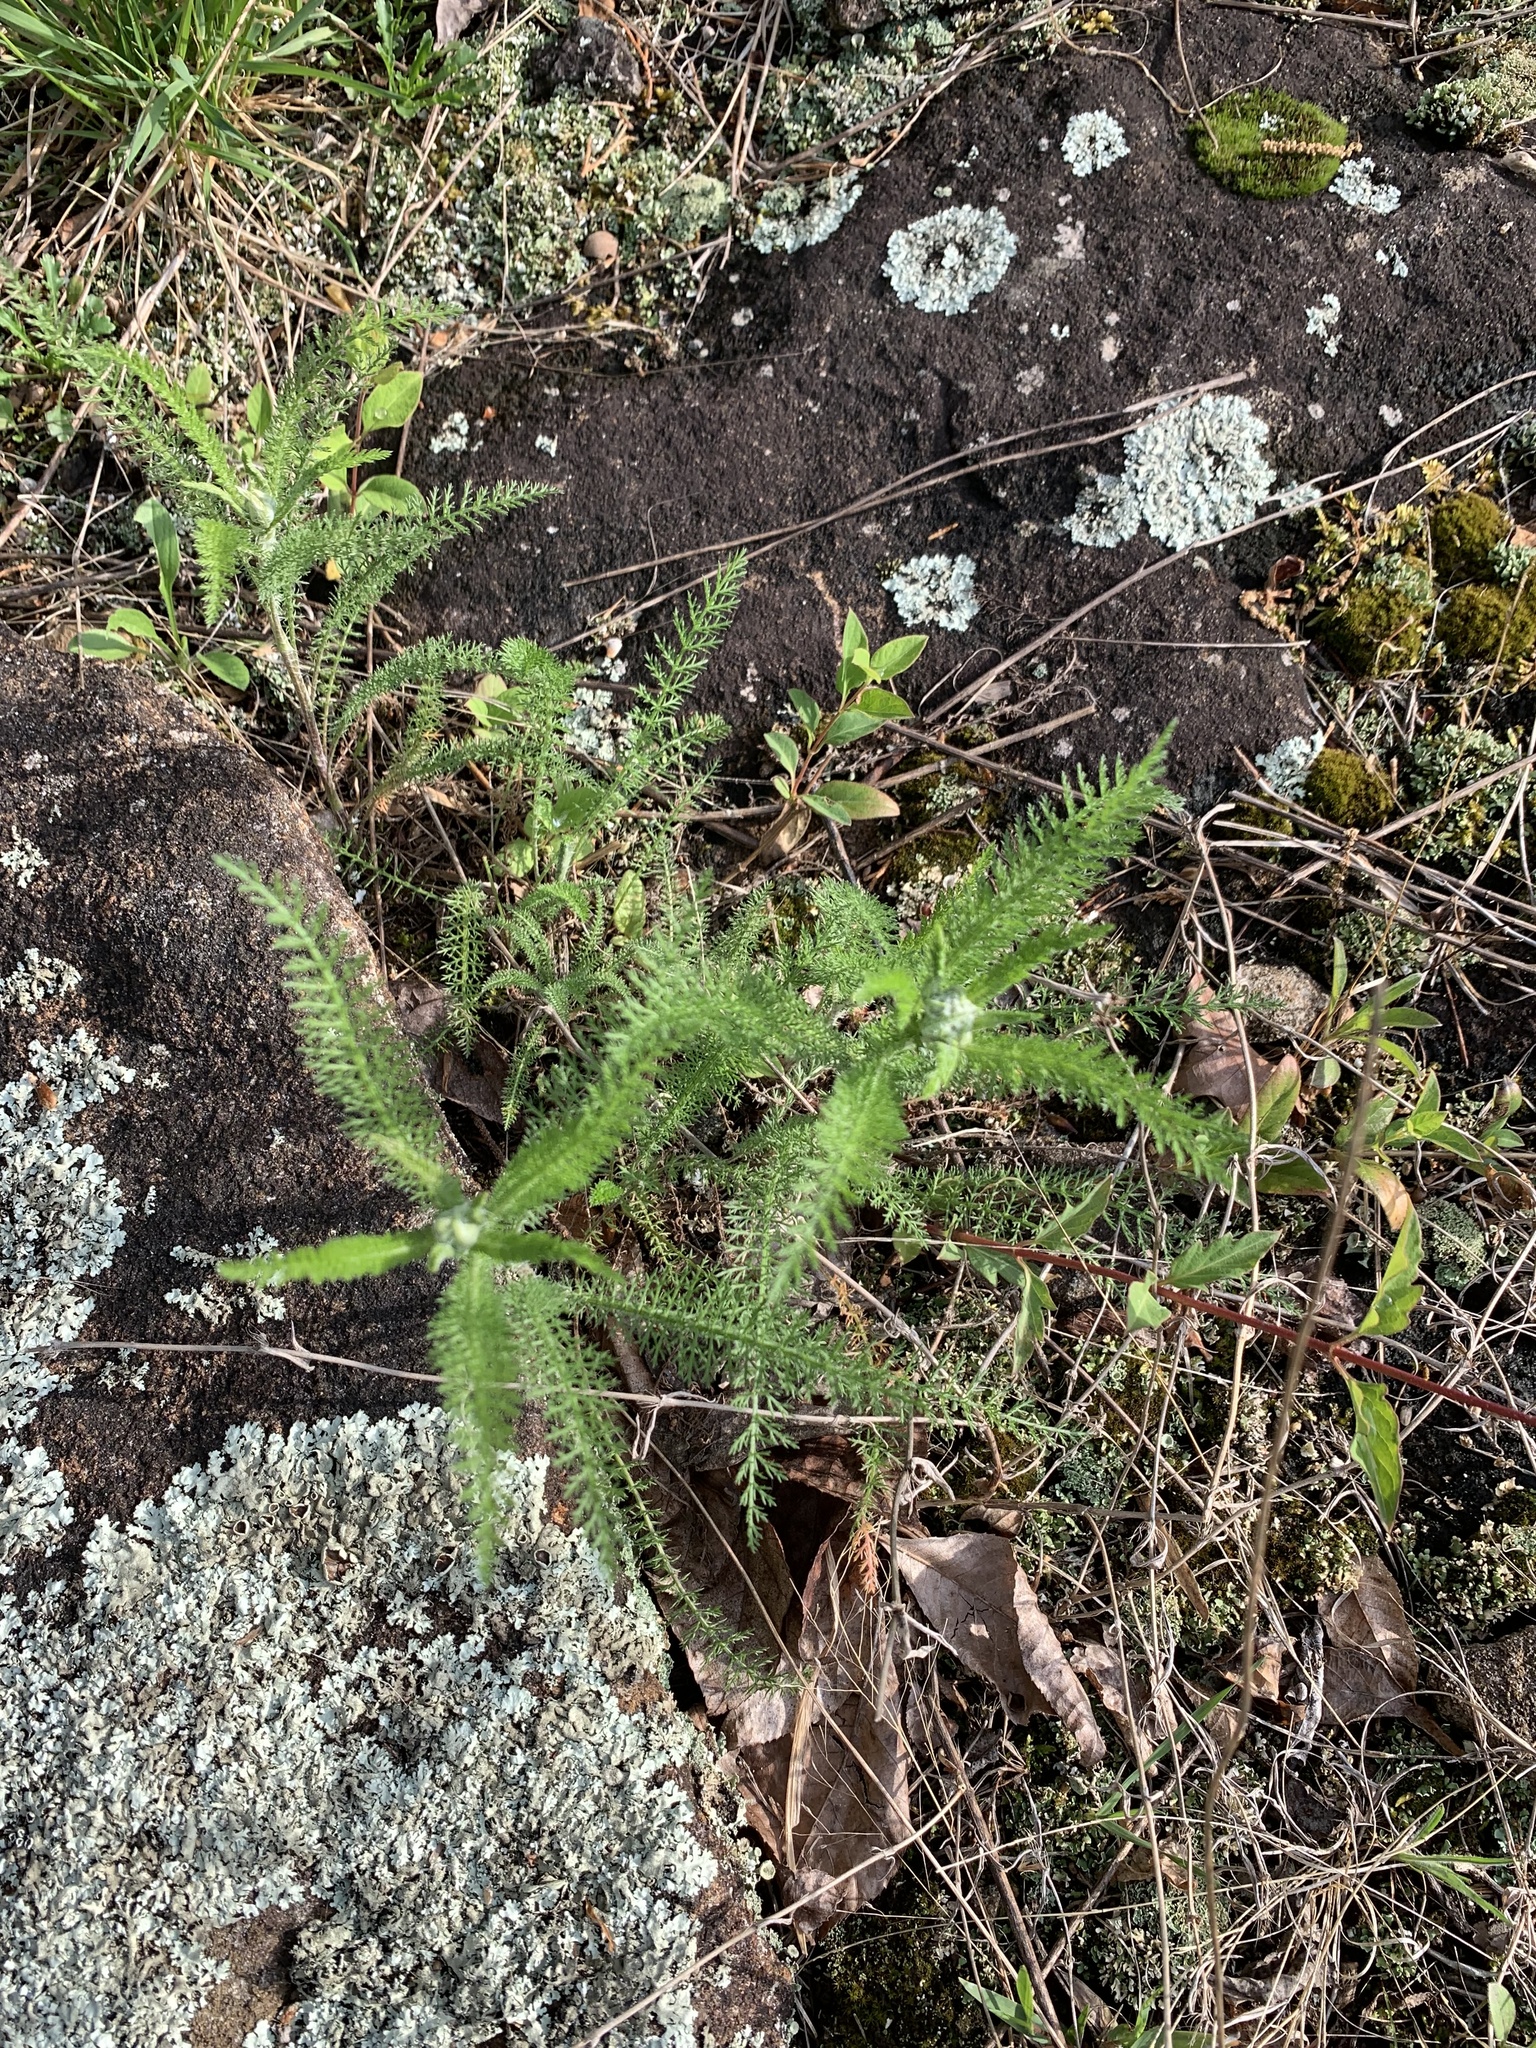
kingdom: Plantae
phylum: Tracheophyta
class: Magnoliopsida
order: Asterales
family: Asteraceae
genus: Achillea
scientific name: Achillea millefolium
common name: Yarrow
